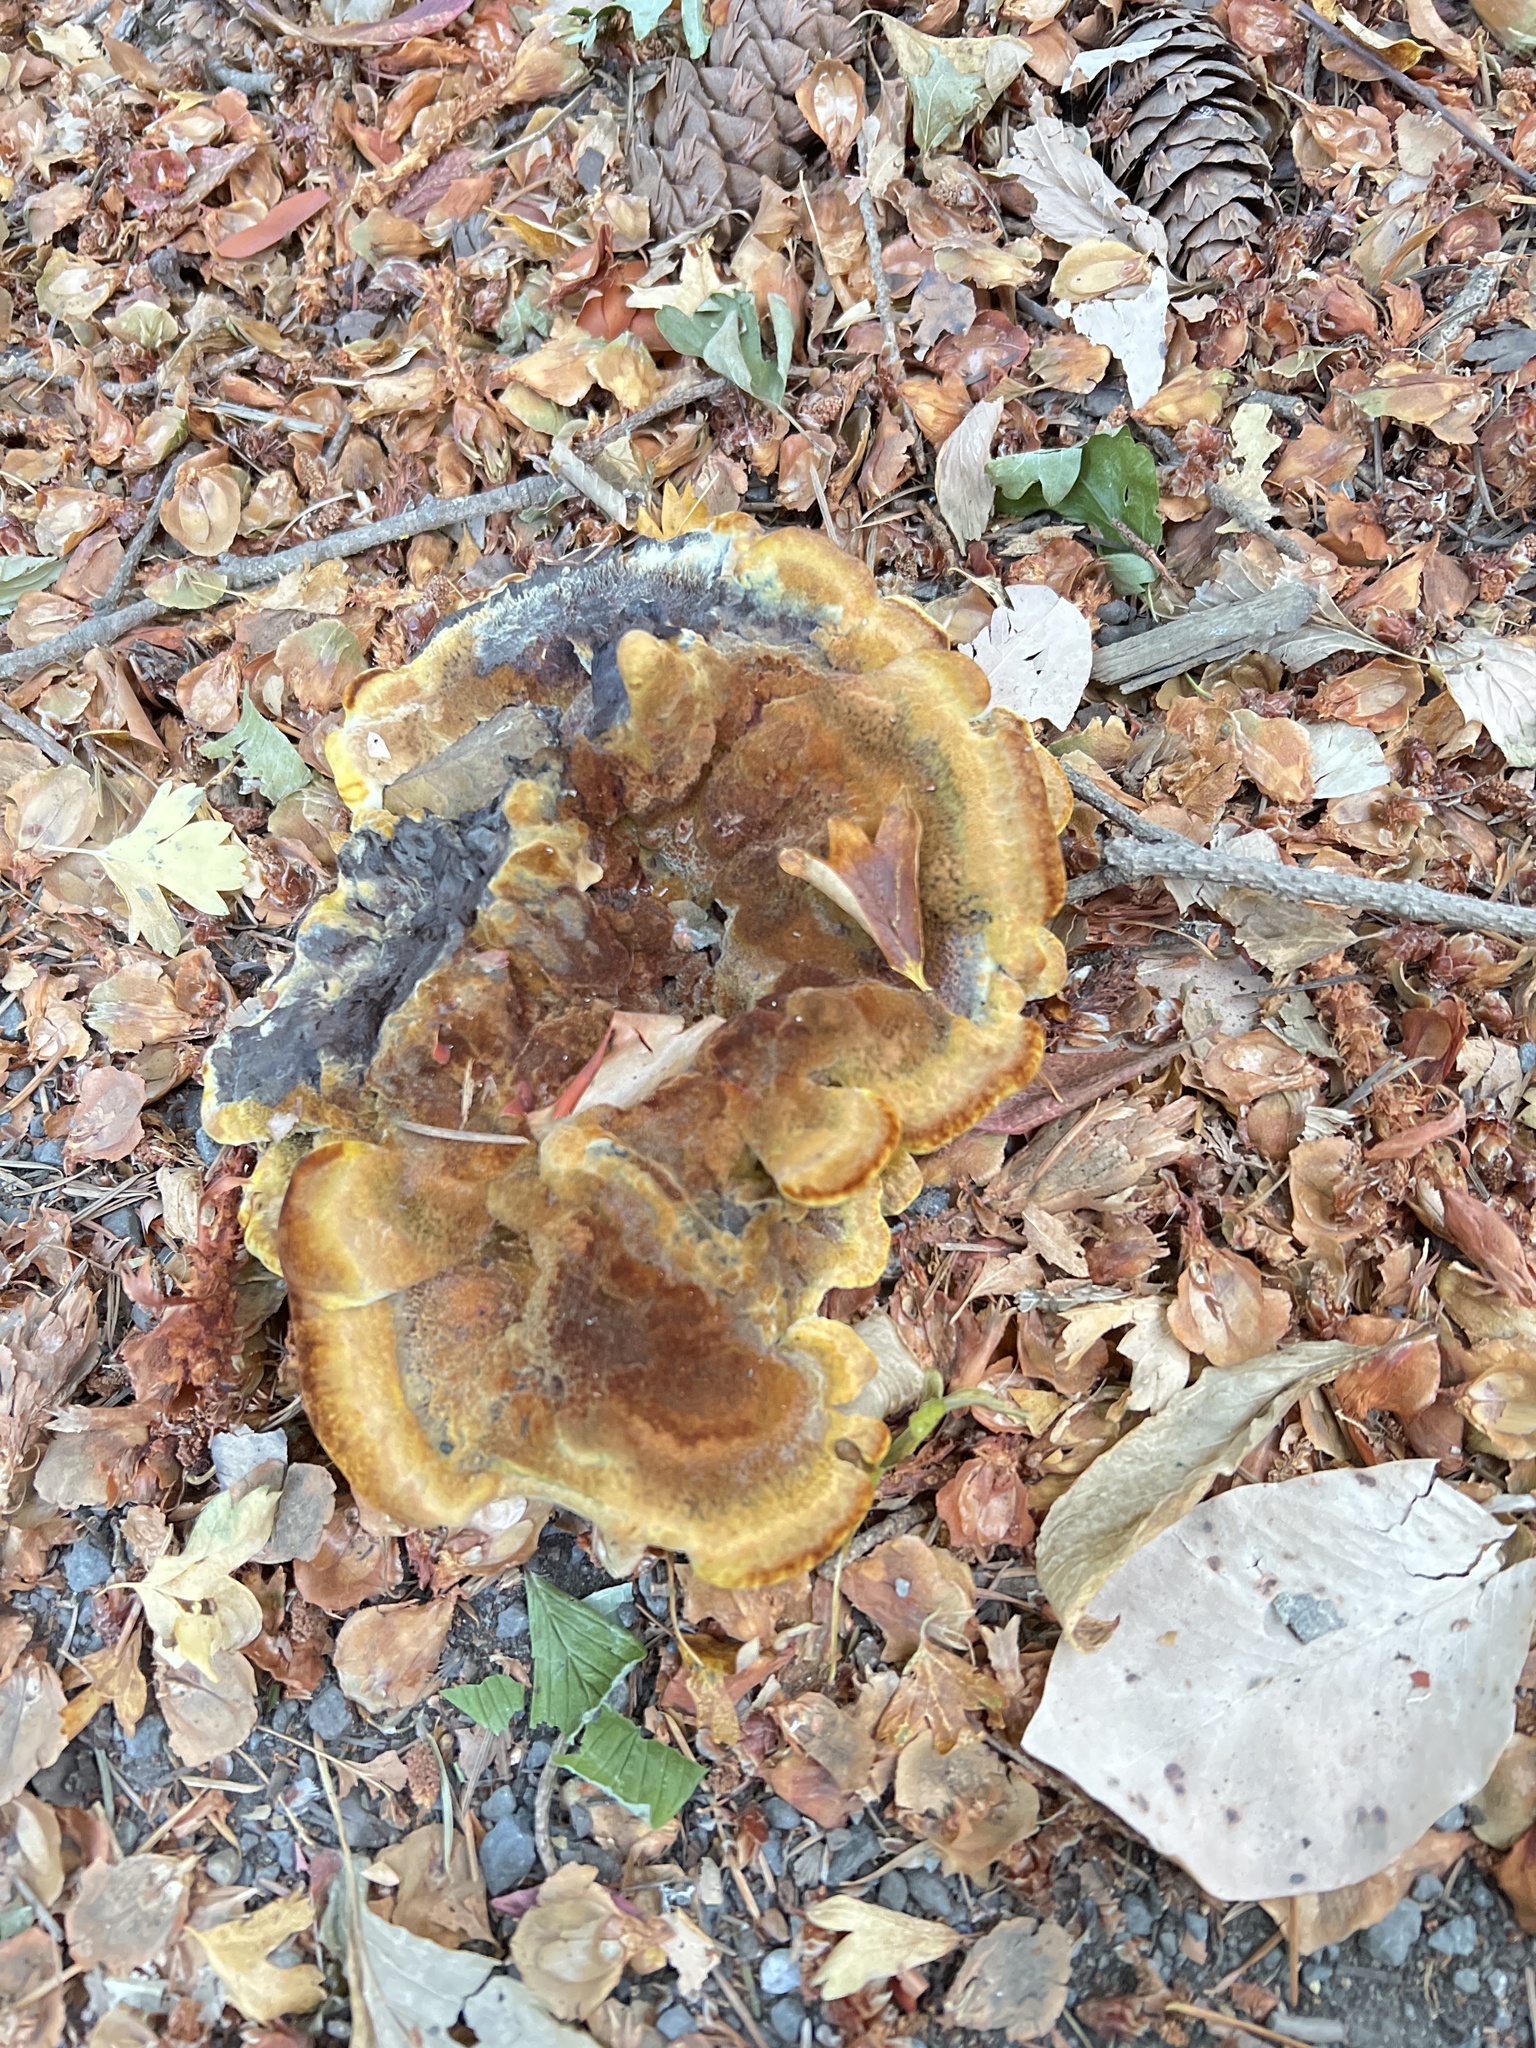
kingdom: Fungi
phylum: Basidiomycota
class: Agaricomycetes
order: Polyporales
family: Laetiporaceae
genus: Phaeolus
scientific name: Phaeolus schweinitzii
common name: Dyer's mazegill
